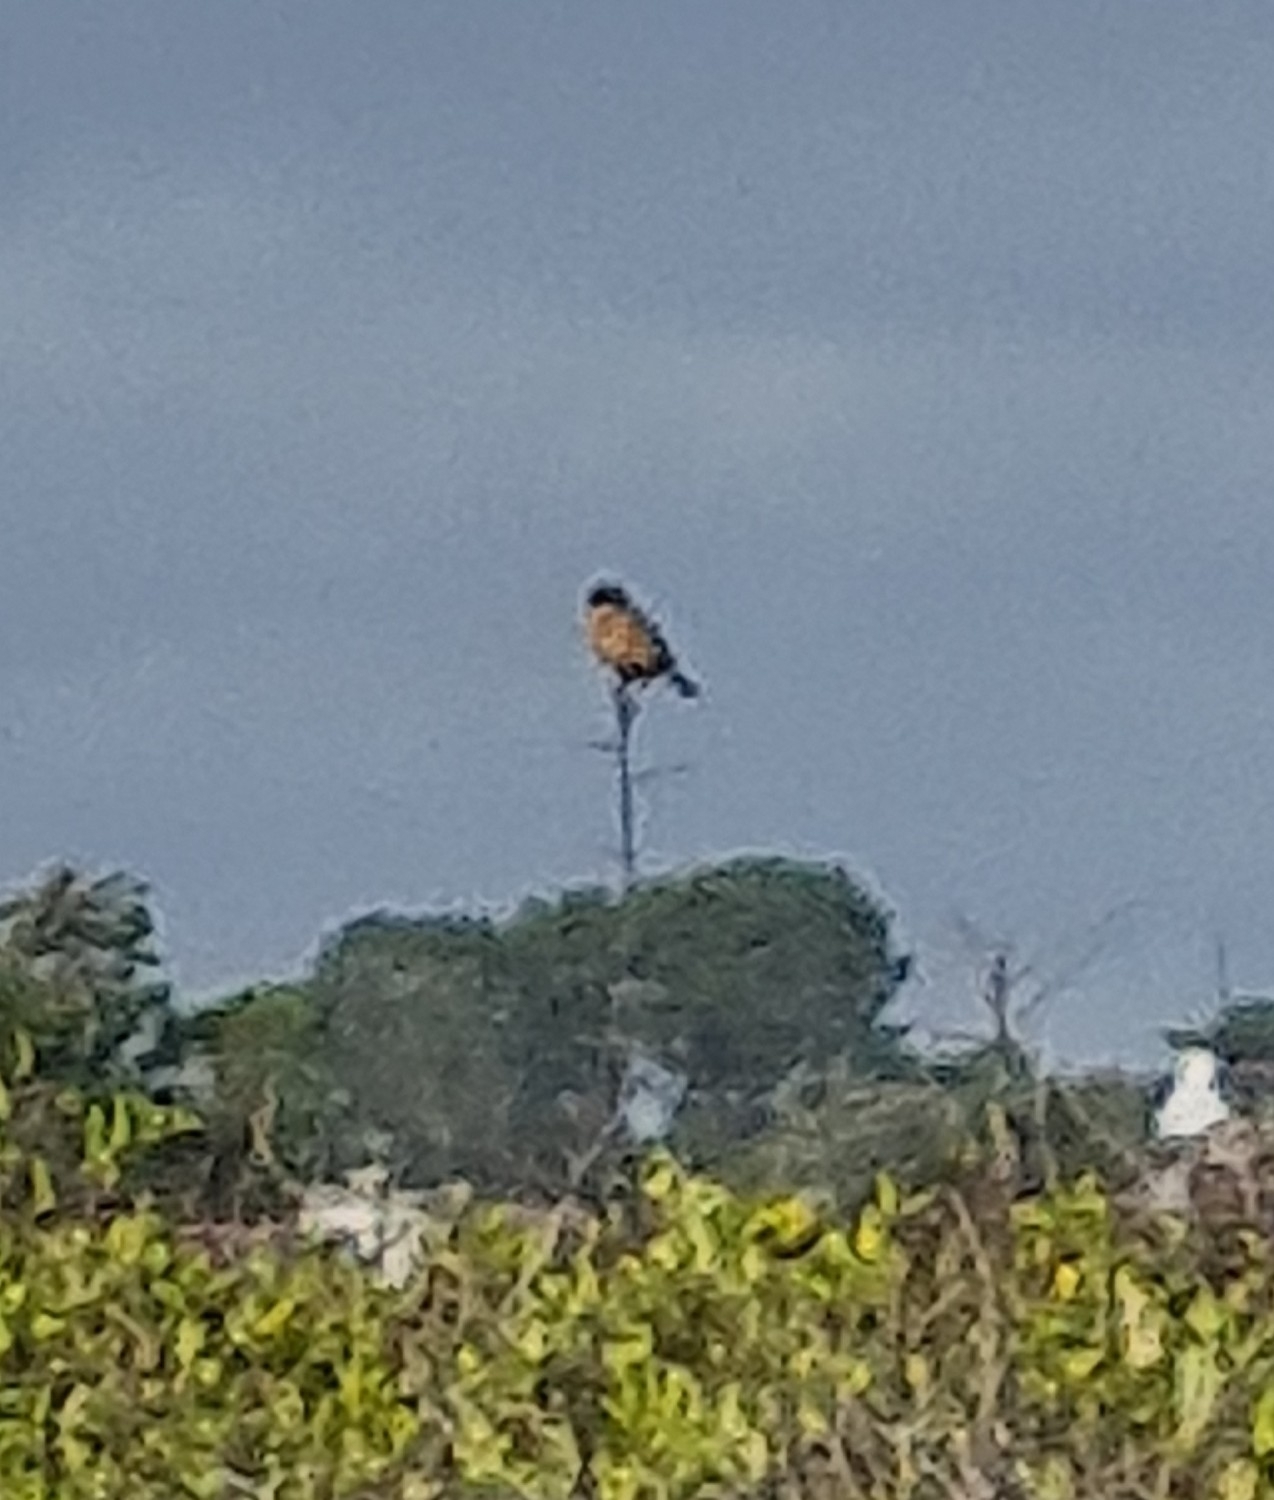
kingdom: Animalia
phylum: Chordata
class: Aves
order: Passeriformes
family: Muscicapidae
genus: Saxicola
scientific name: Saxicola rubicola
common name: European stonechat
